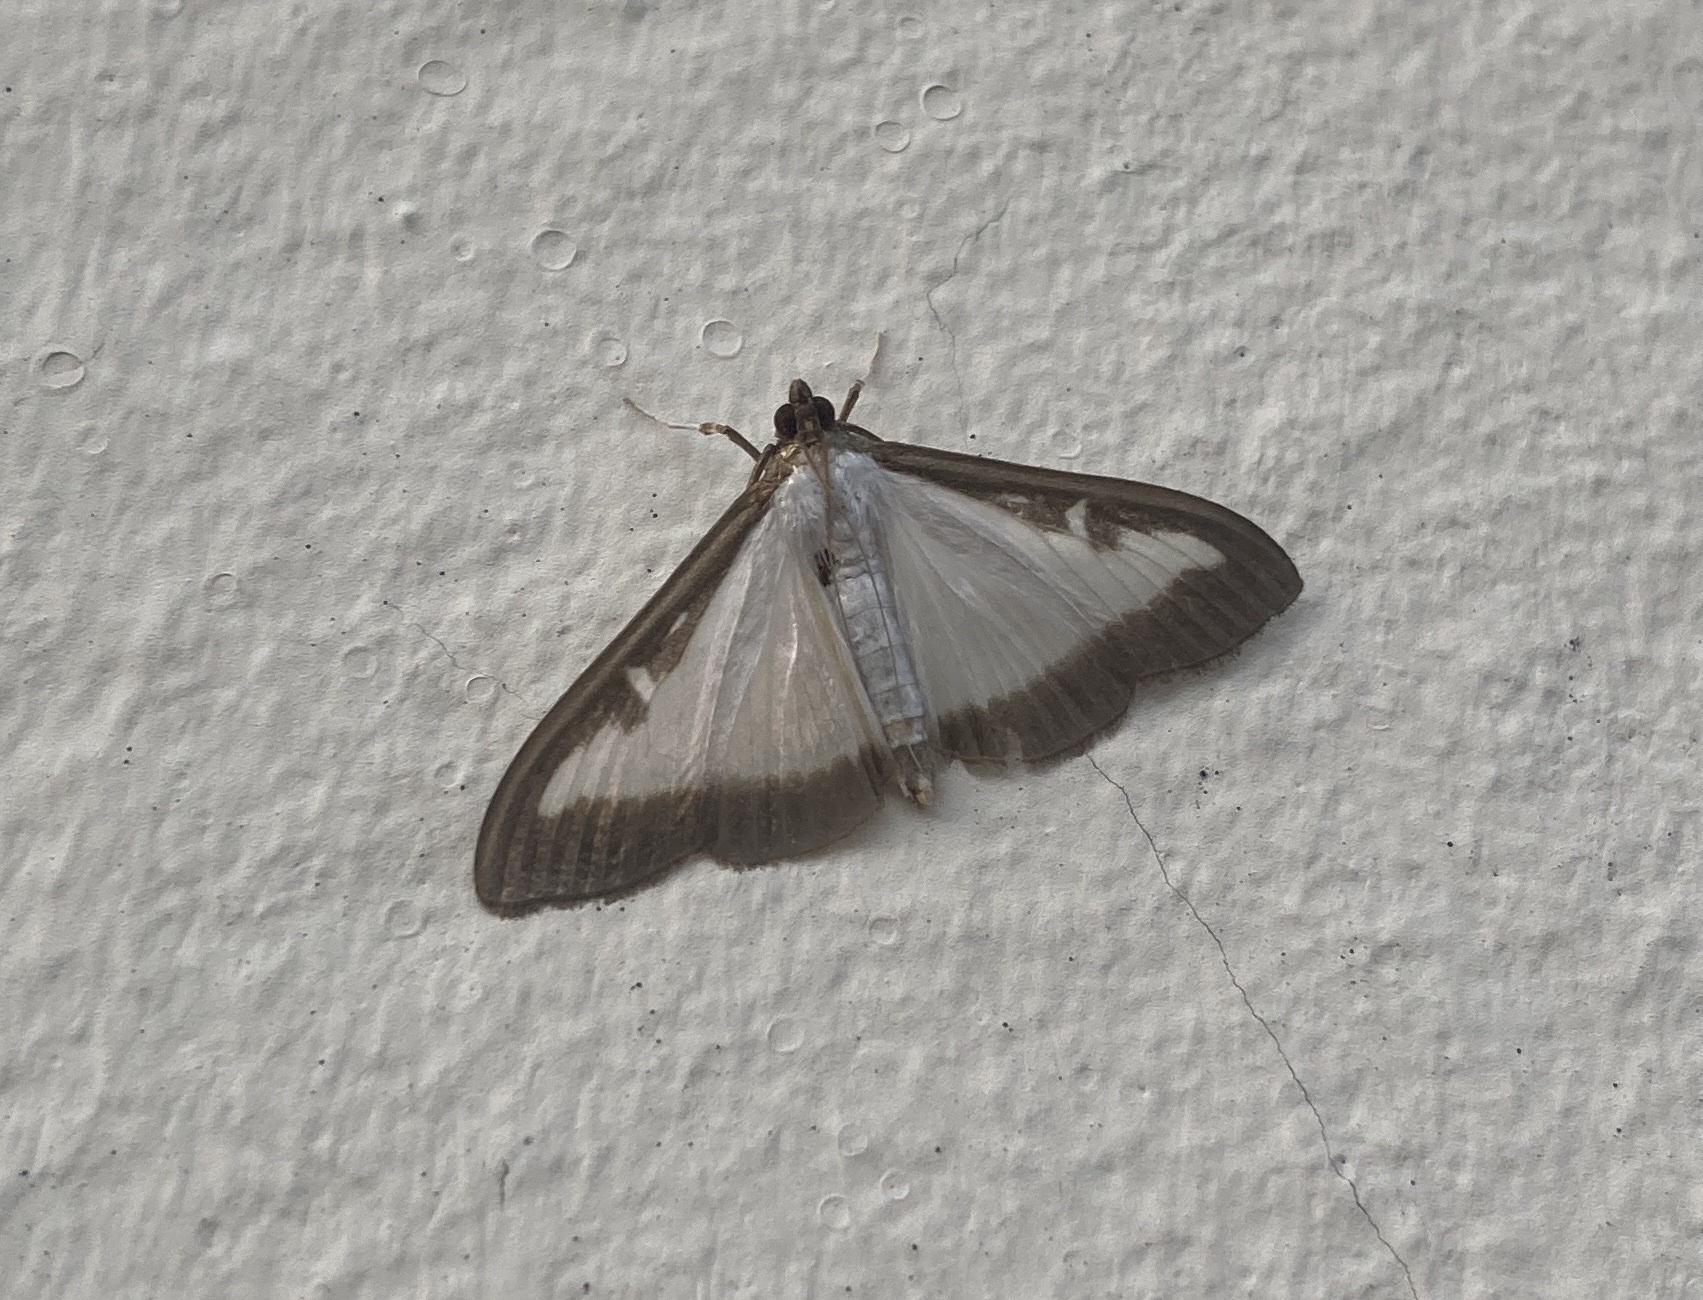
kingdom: Animalia
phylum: Arthropoda
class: Insecta
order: Lepidoptera
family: Crambidae
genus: Cydalima
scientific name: Cydalima perspectalis
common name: Box tree moth
